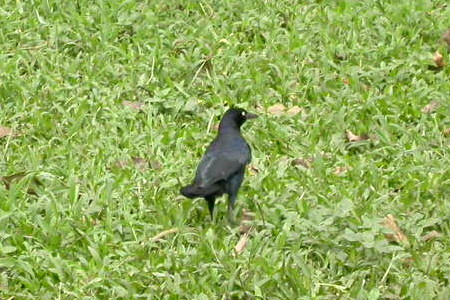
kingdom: Animalia
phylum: Chordata
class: Aves
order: Passeriformes
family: Icteridae
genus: Quiscalus
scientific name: Quiscalus mexicanus
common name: Great-tailed grackle
